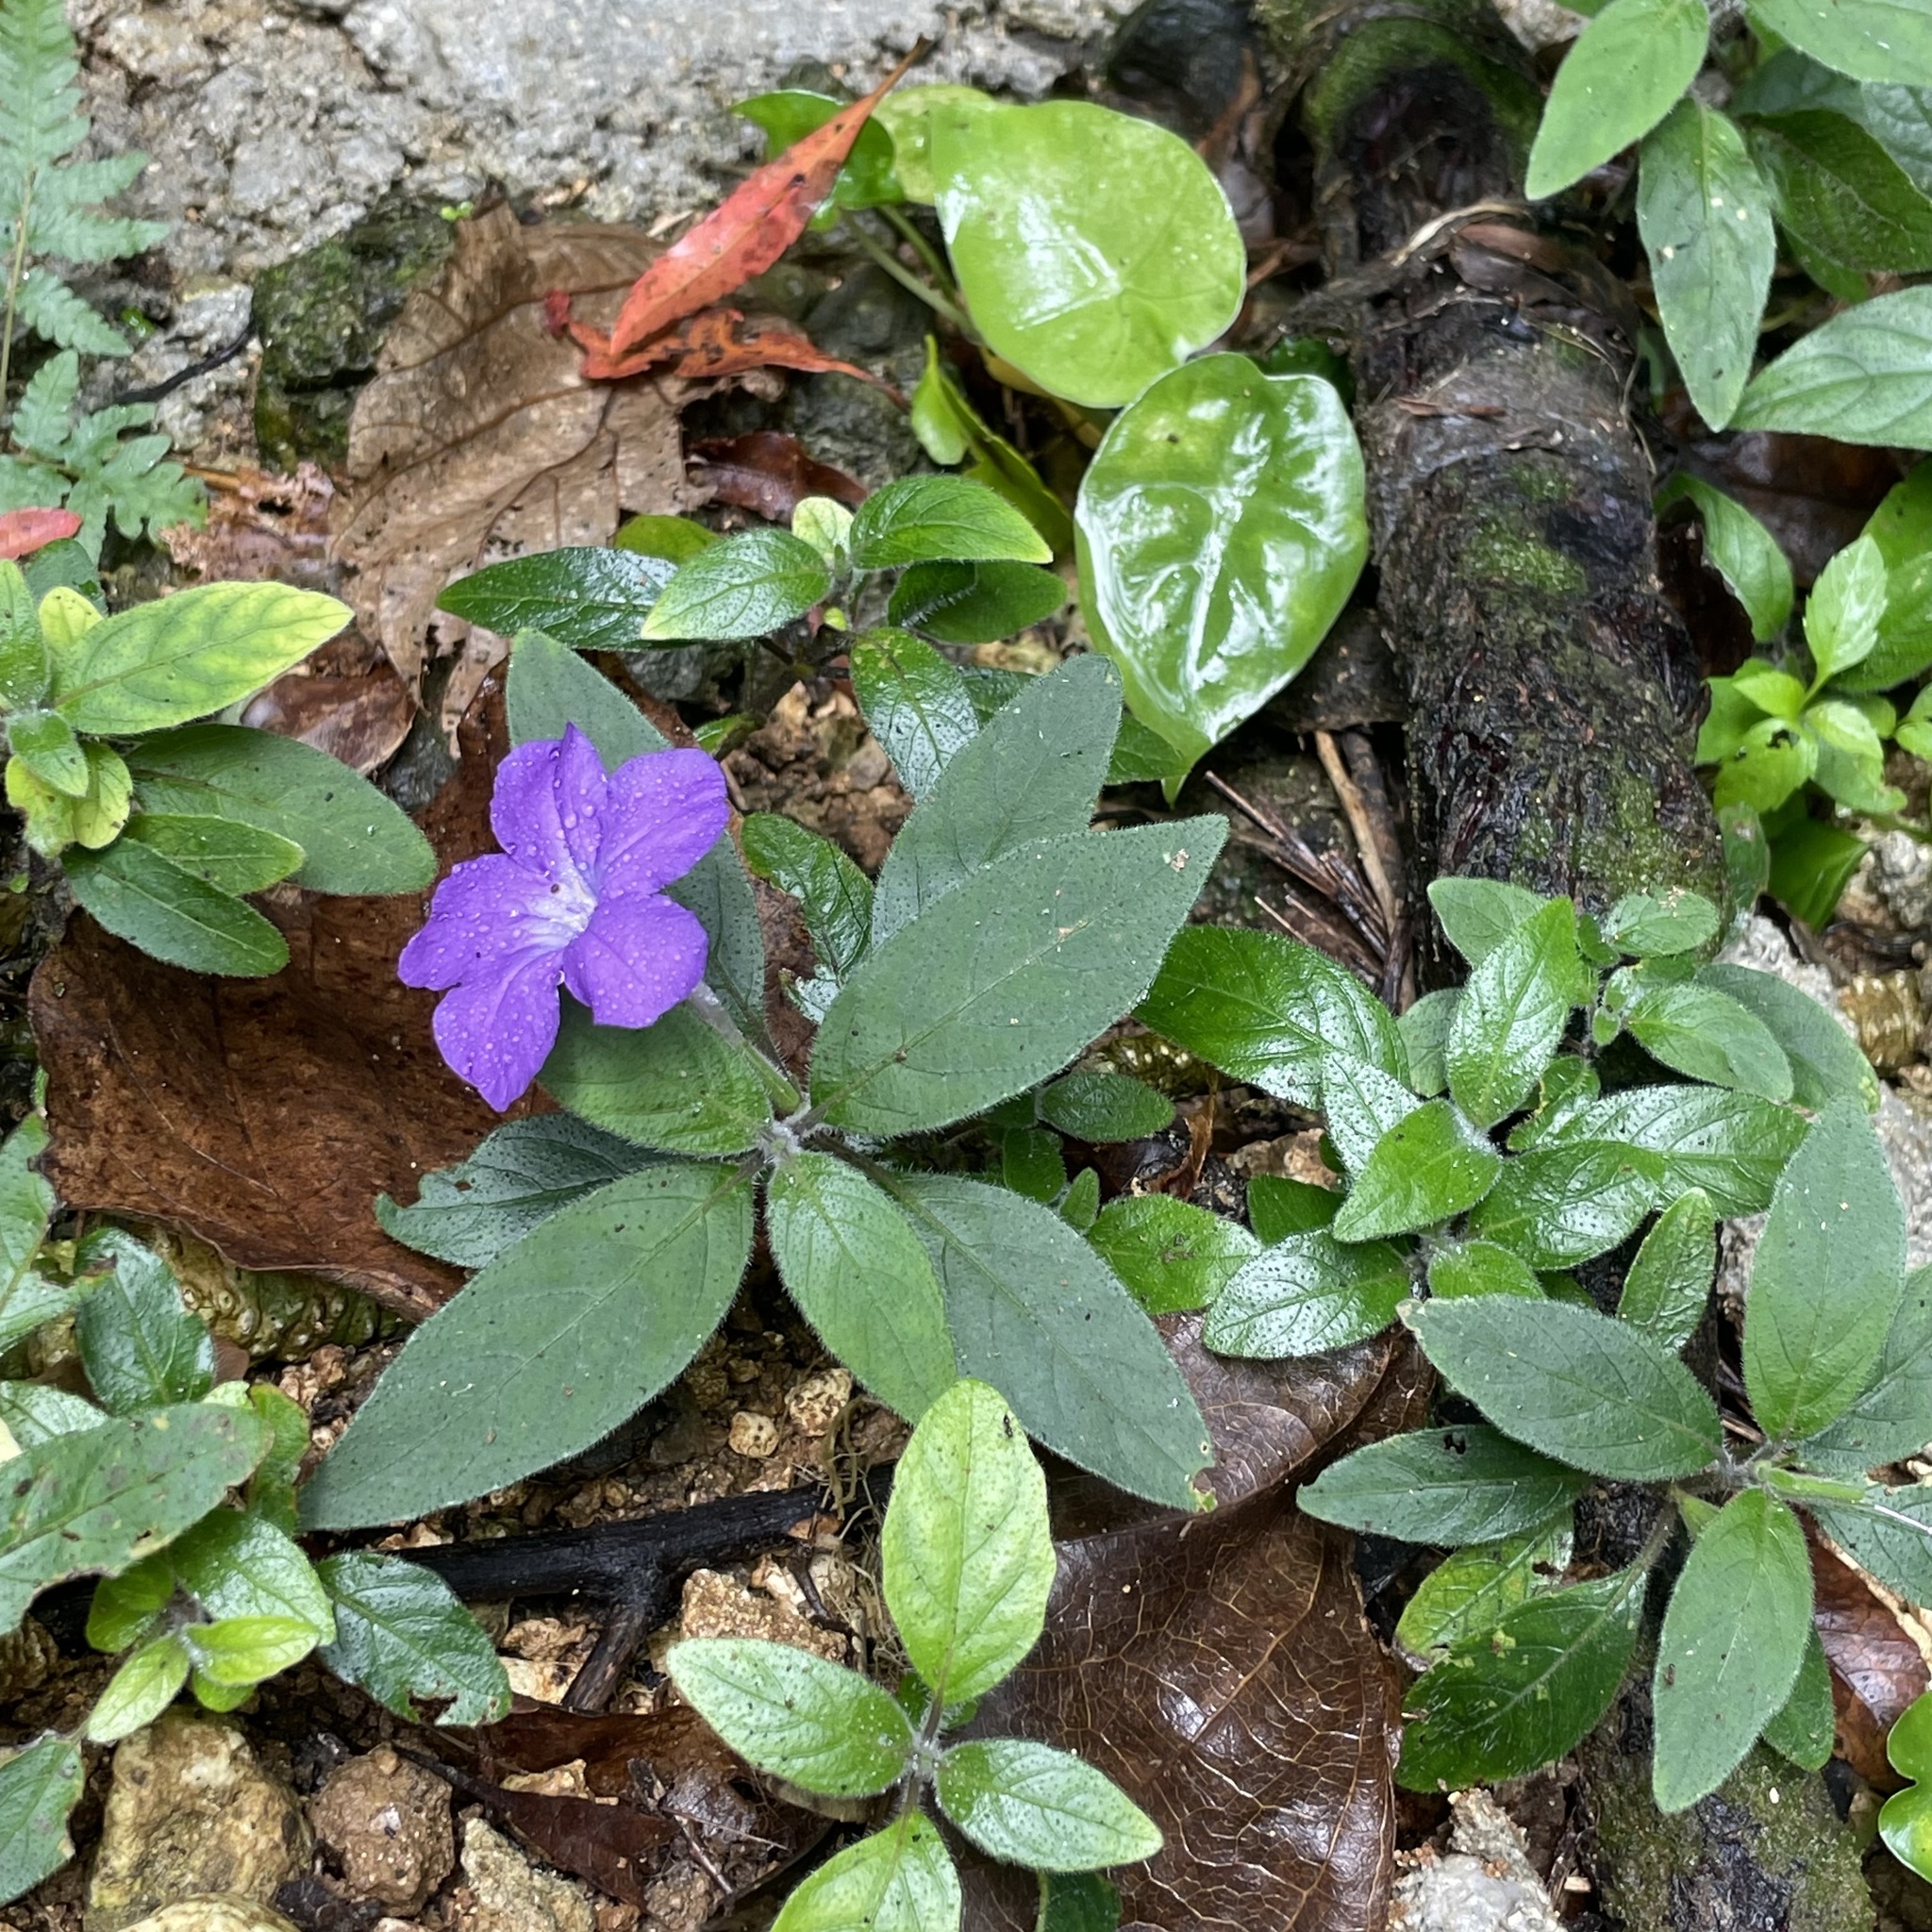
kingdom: Plantae
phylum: Tracheophyta
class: Magnoliopsida
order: Lamiales
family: Acanthaceae
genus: Ruellia
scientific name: Ruellia squarrosa
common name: Water bluebell
